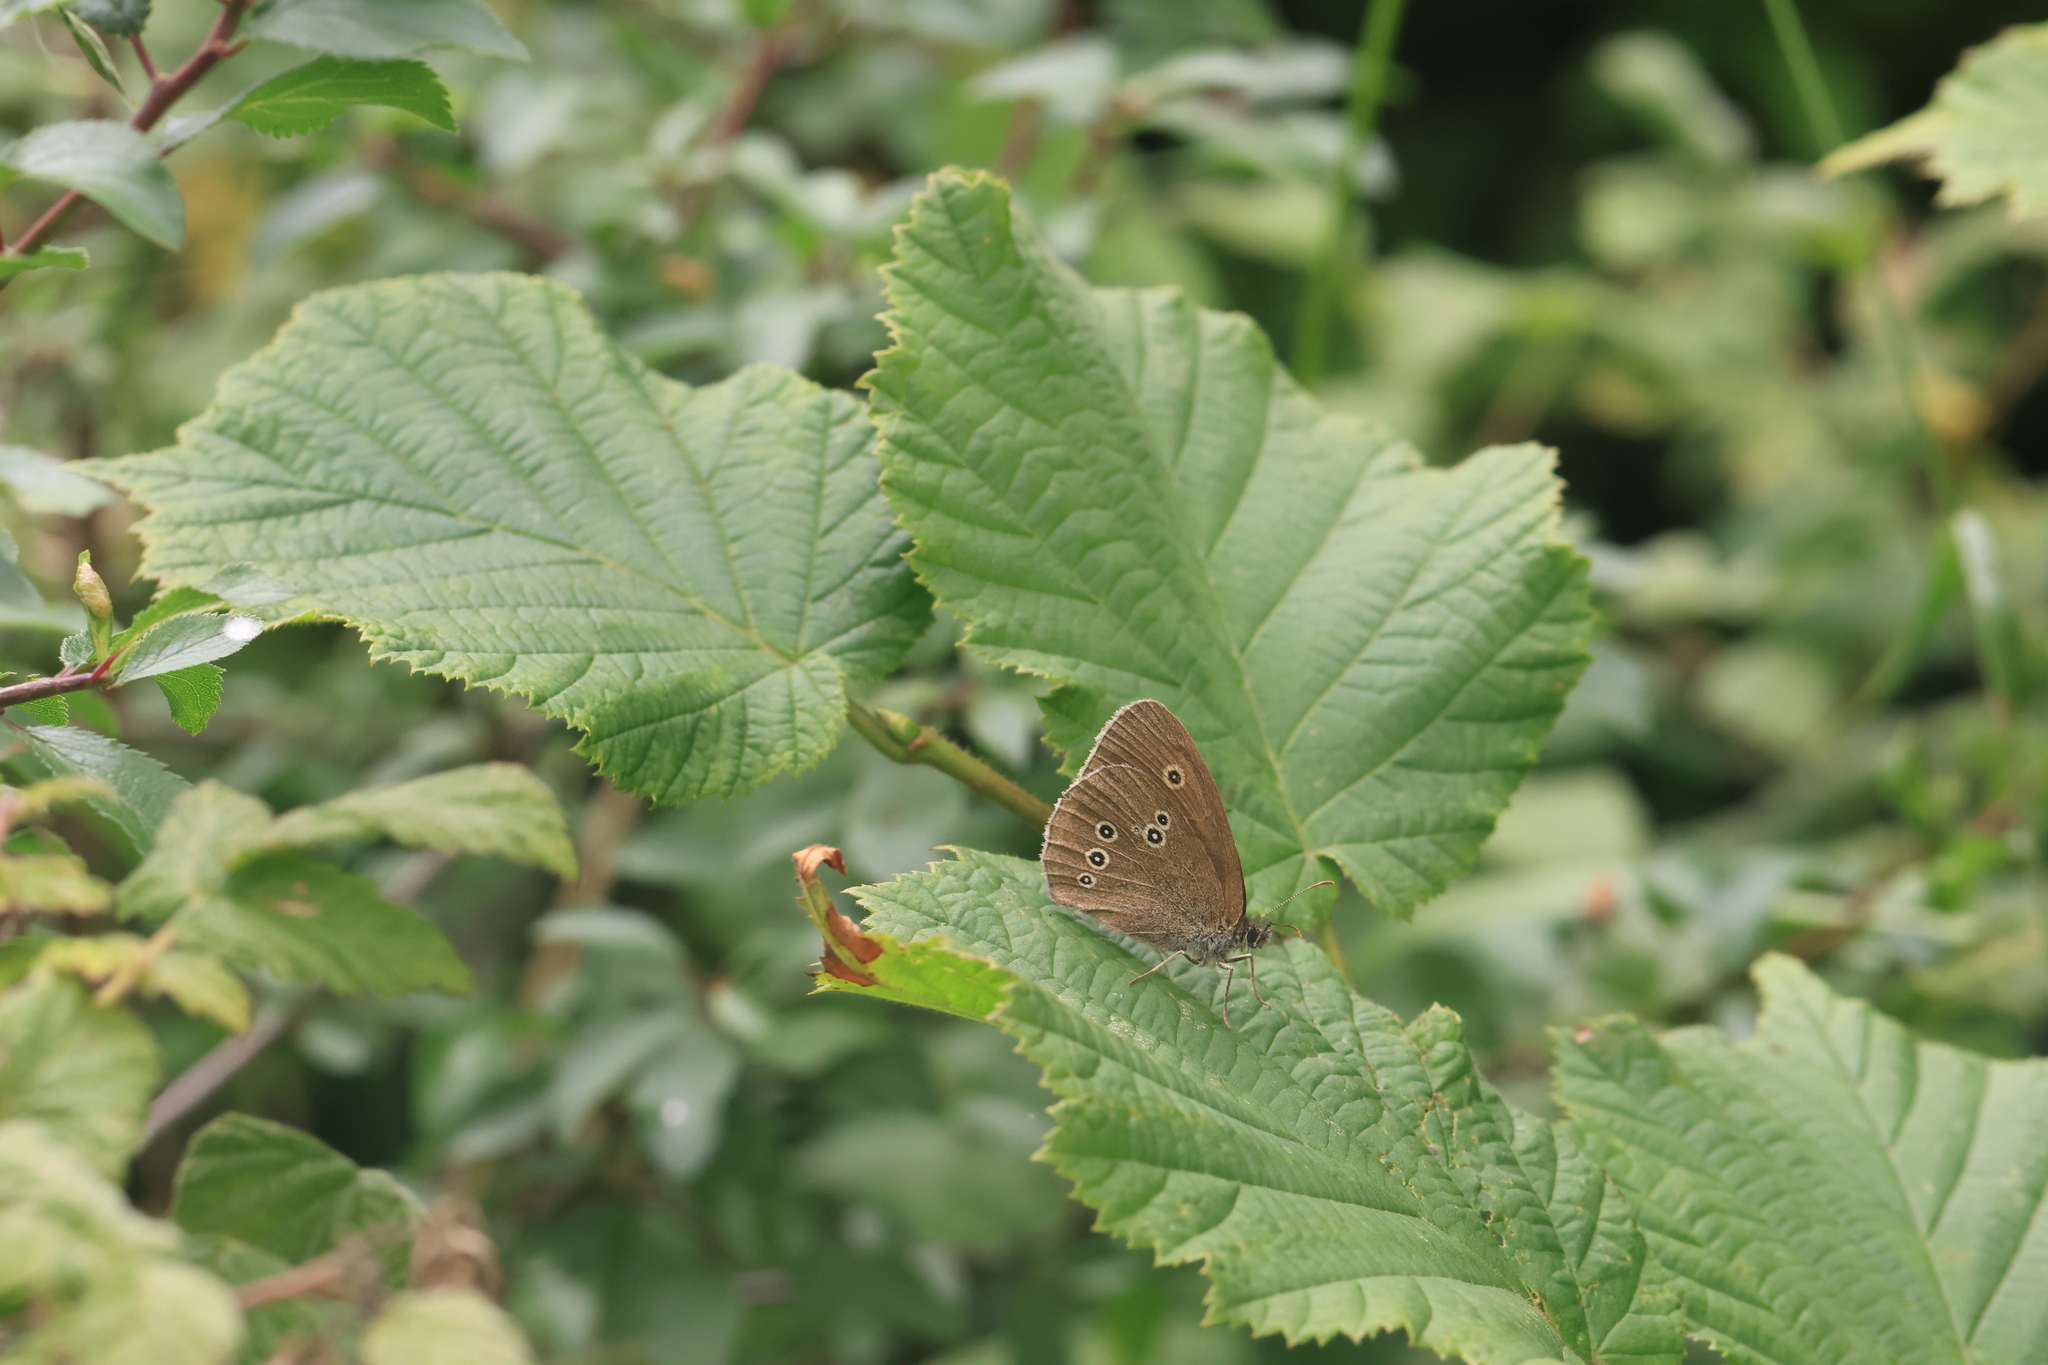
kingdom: Animalia
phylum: Arthropoda
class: Insecta
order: Lepidoptera
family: Nymphalidae
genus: Aphantopus
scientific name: Aphantopus hyperantus
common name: Ringlet
